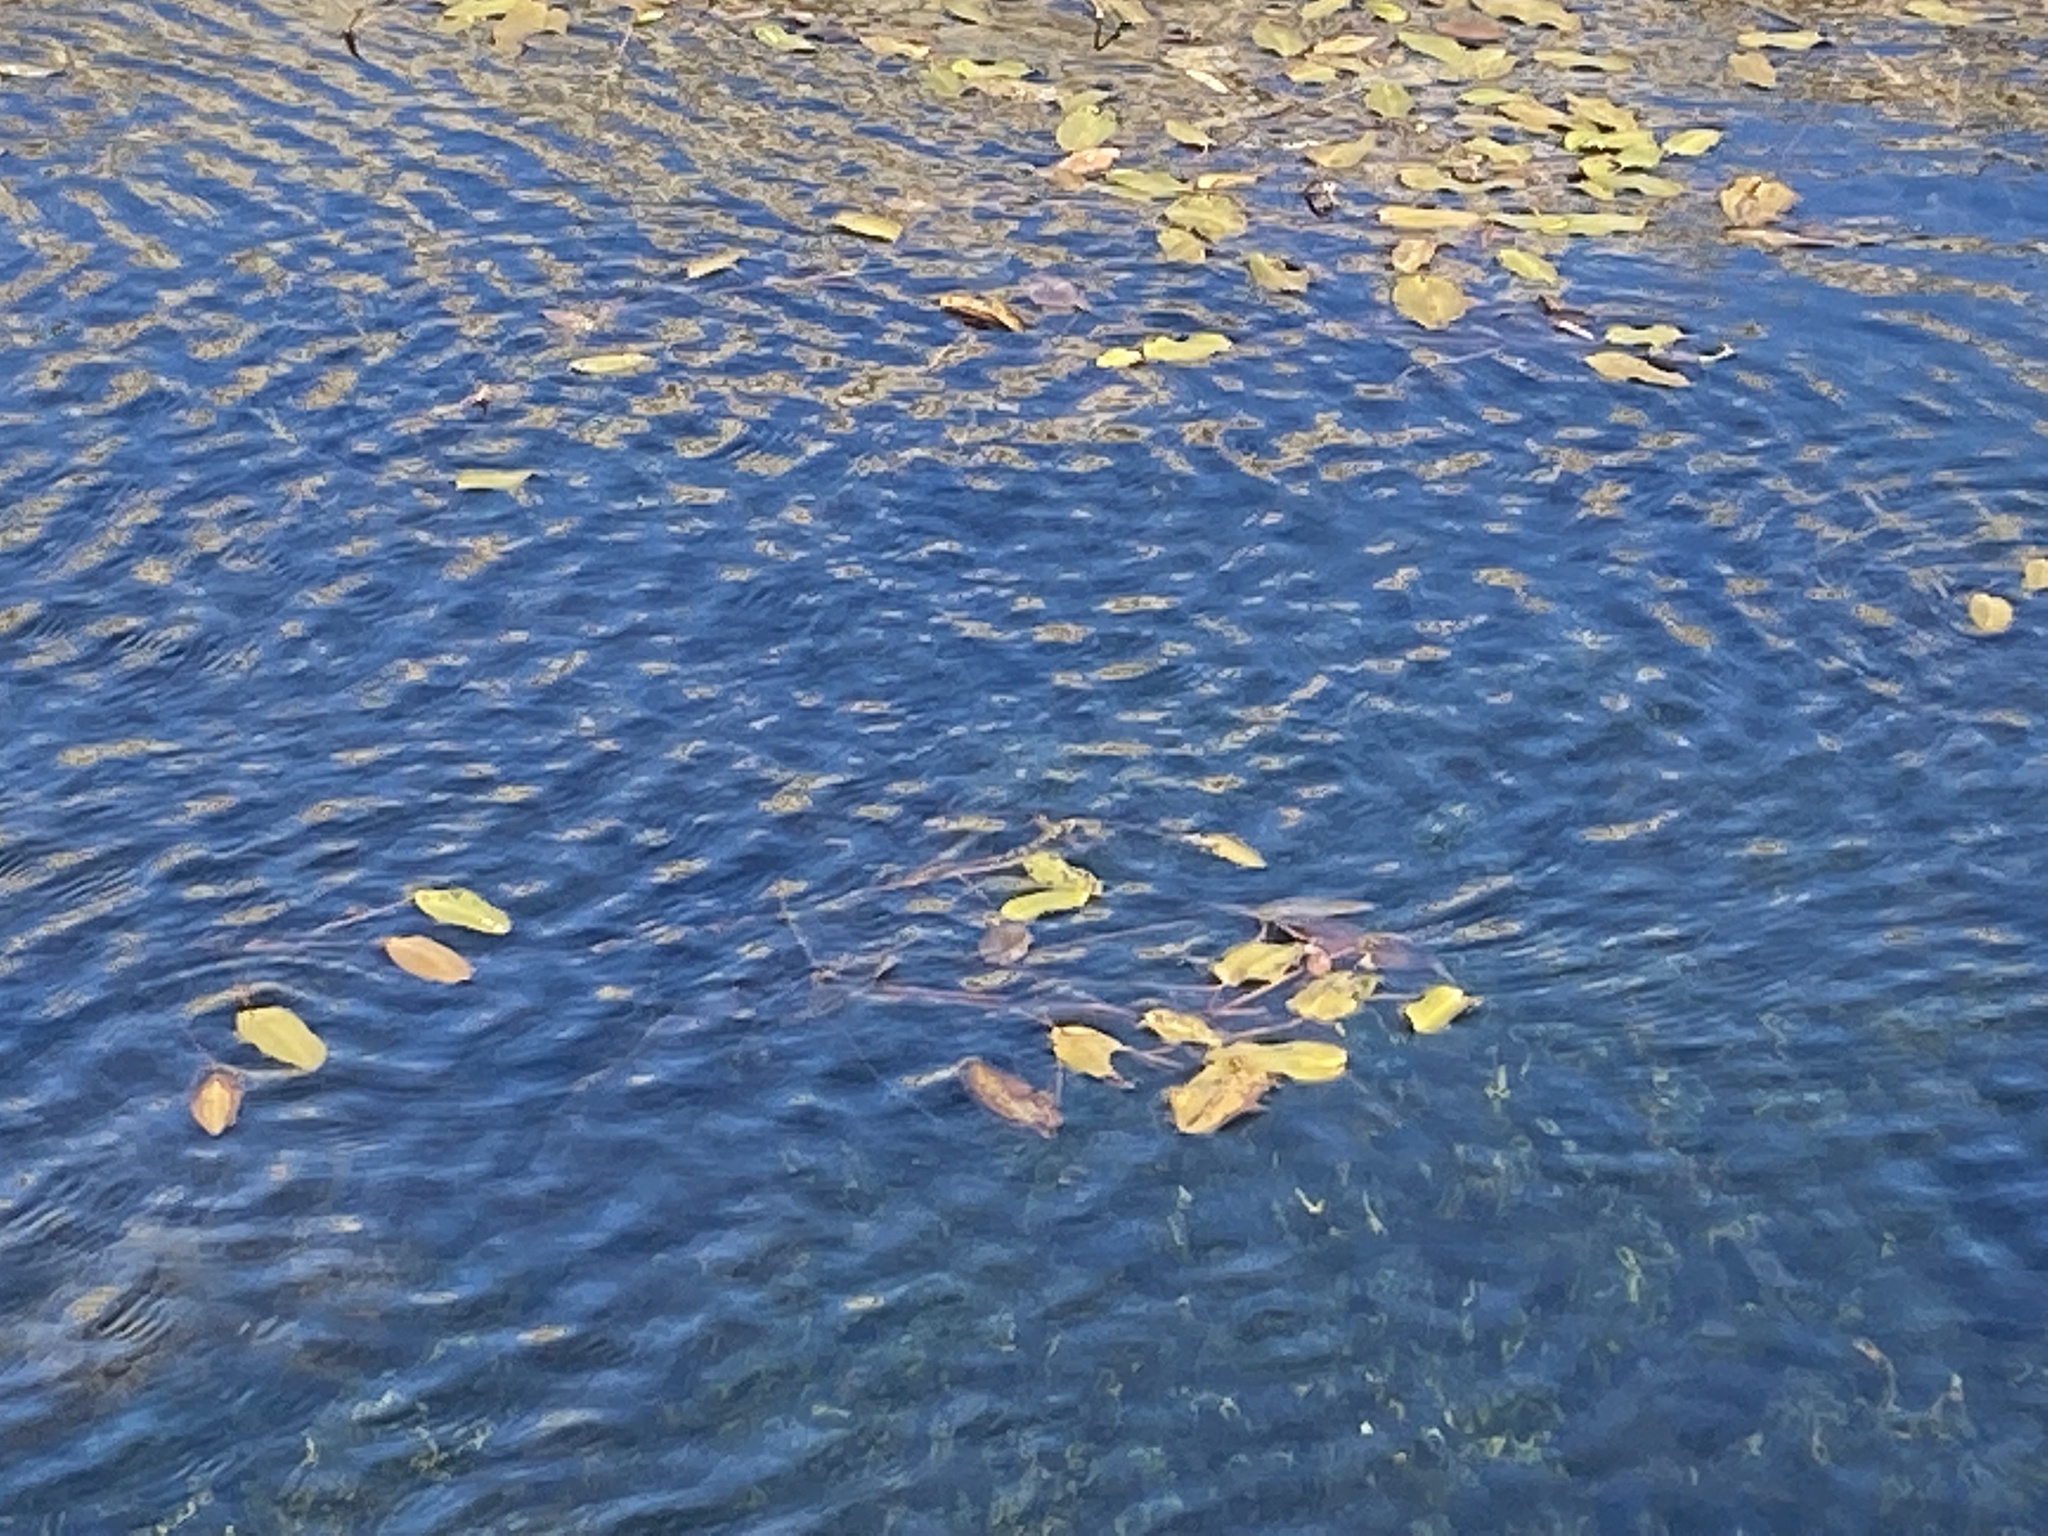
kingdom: Plantae
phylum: Tracheophyta
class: Liliopsida
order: Alismatales
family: Potamogetonaceae
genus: Potamogeton
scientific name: Potamogeton natans
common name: Broad-leaved pondweed
